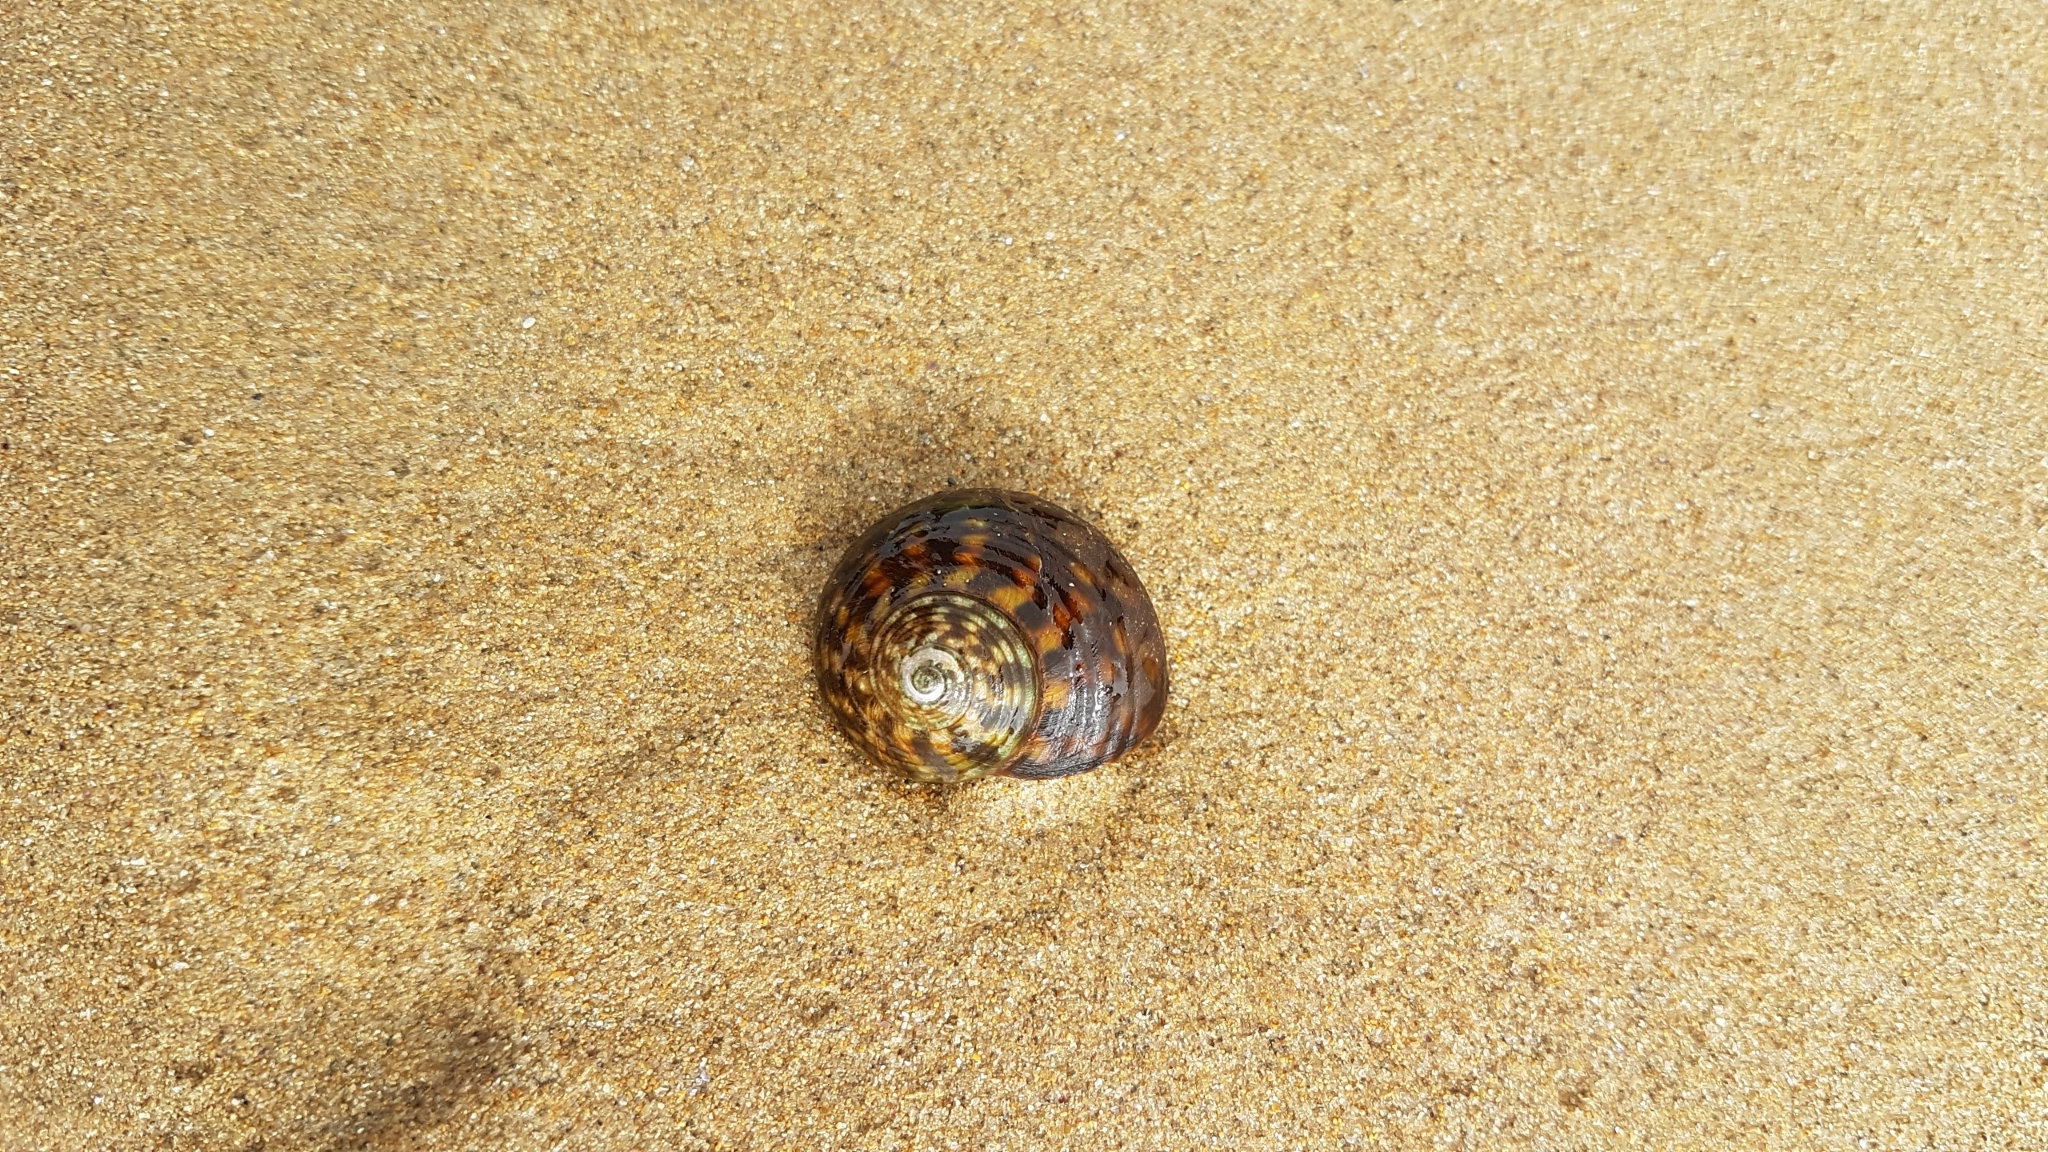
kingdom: Animalia
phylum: Mollusca
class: Gastropoda
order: Trochida
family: Turbinidae
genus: Lunella
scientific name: Lunella undulata
